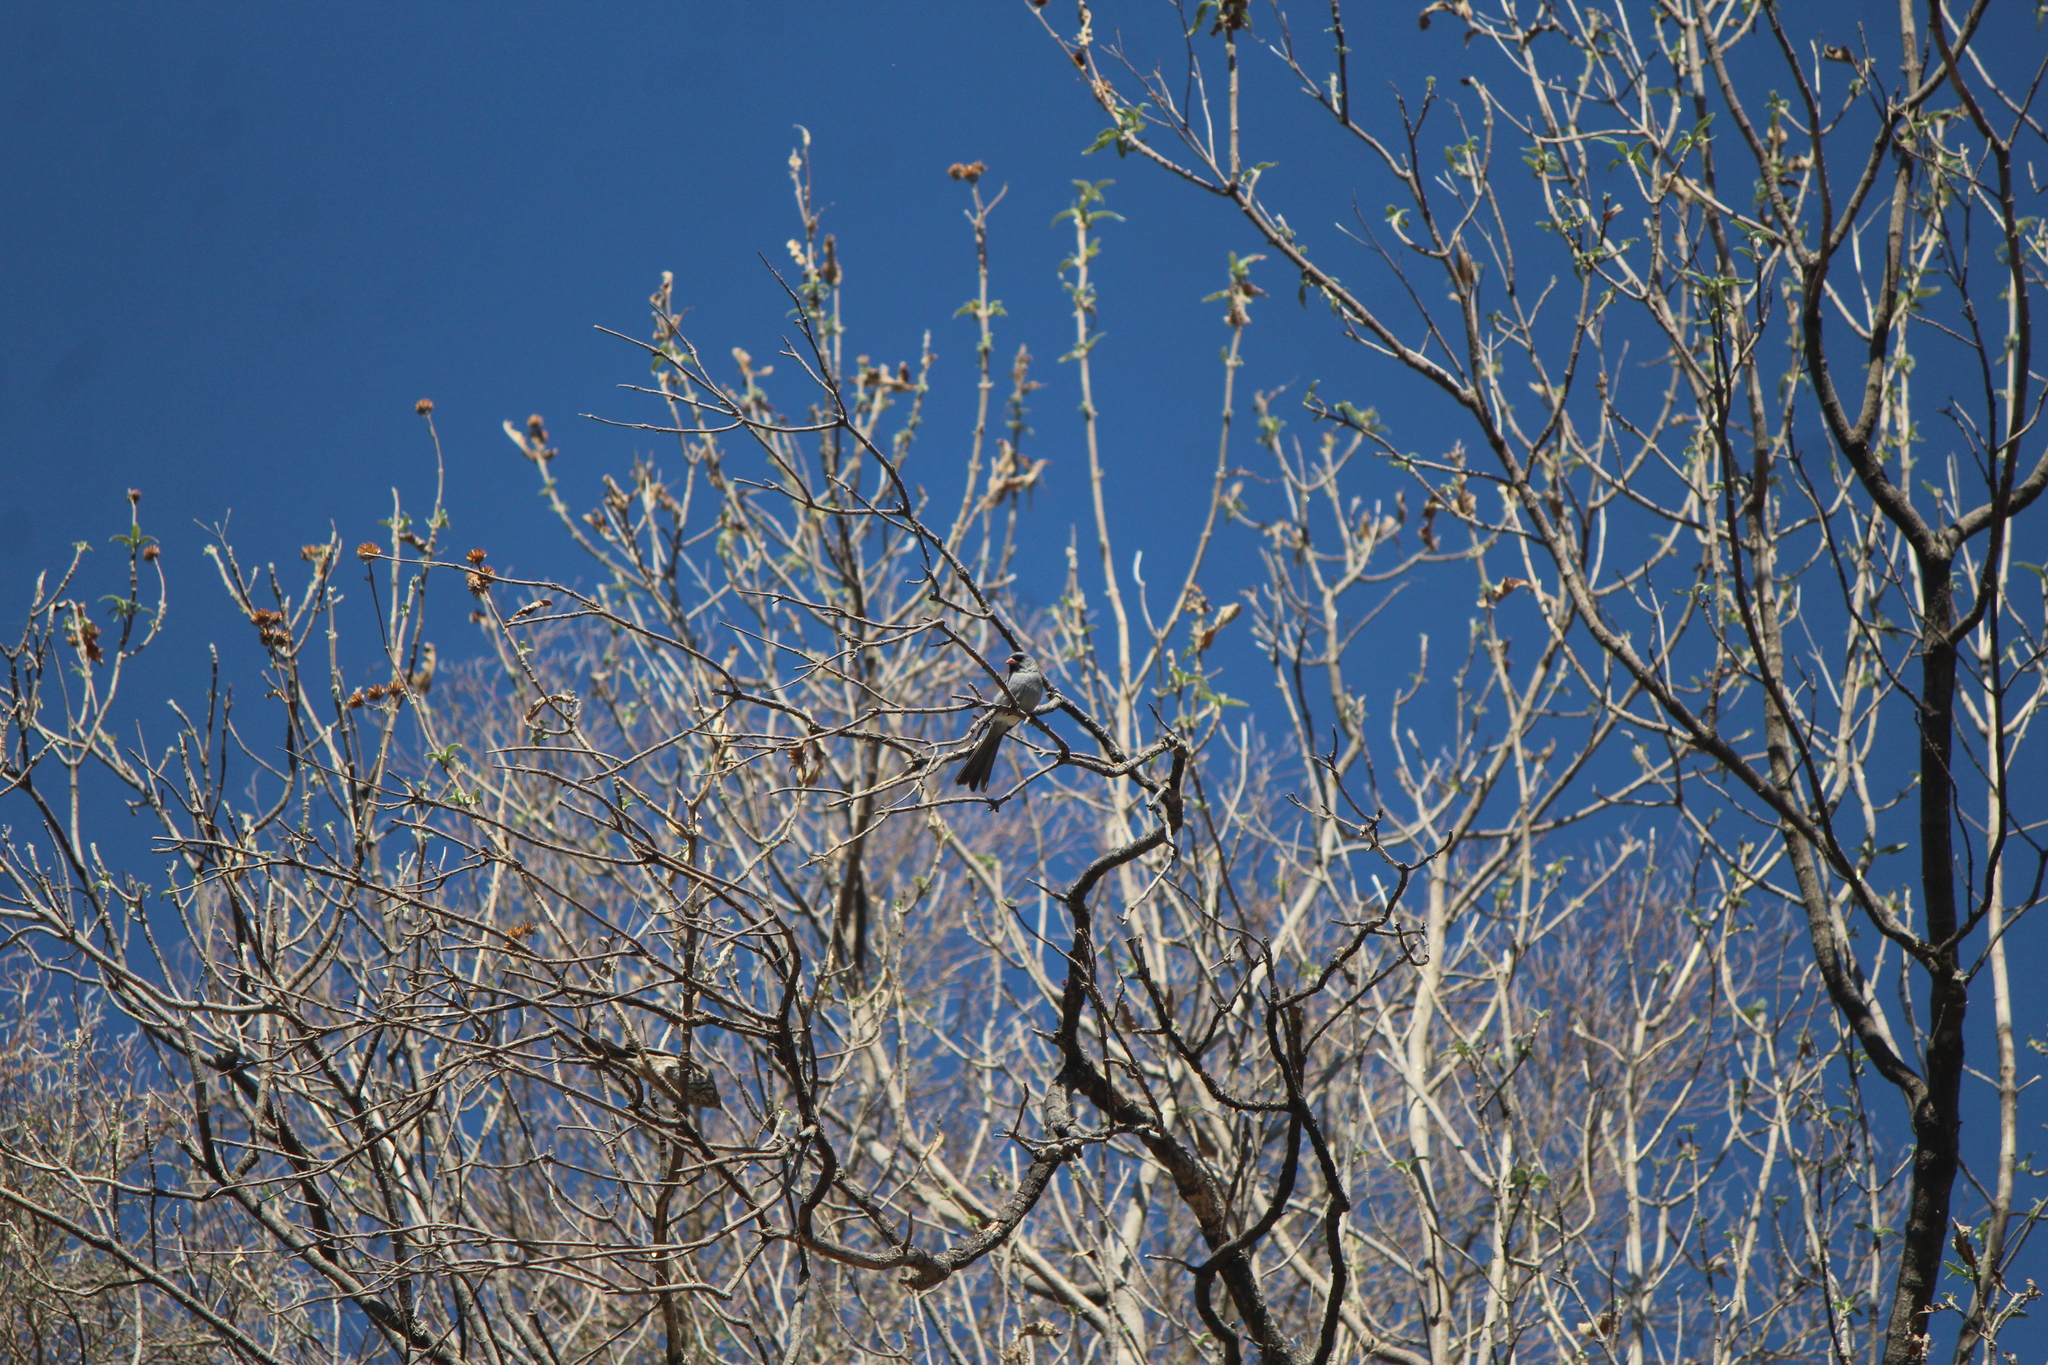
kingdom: Animalia
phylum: Chordata
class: Aves
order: Passeriformes
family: Passerellidae
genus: Spizella
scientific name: Spizella atrogularis
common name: Black-chinned sparrow
